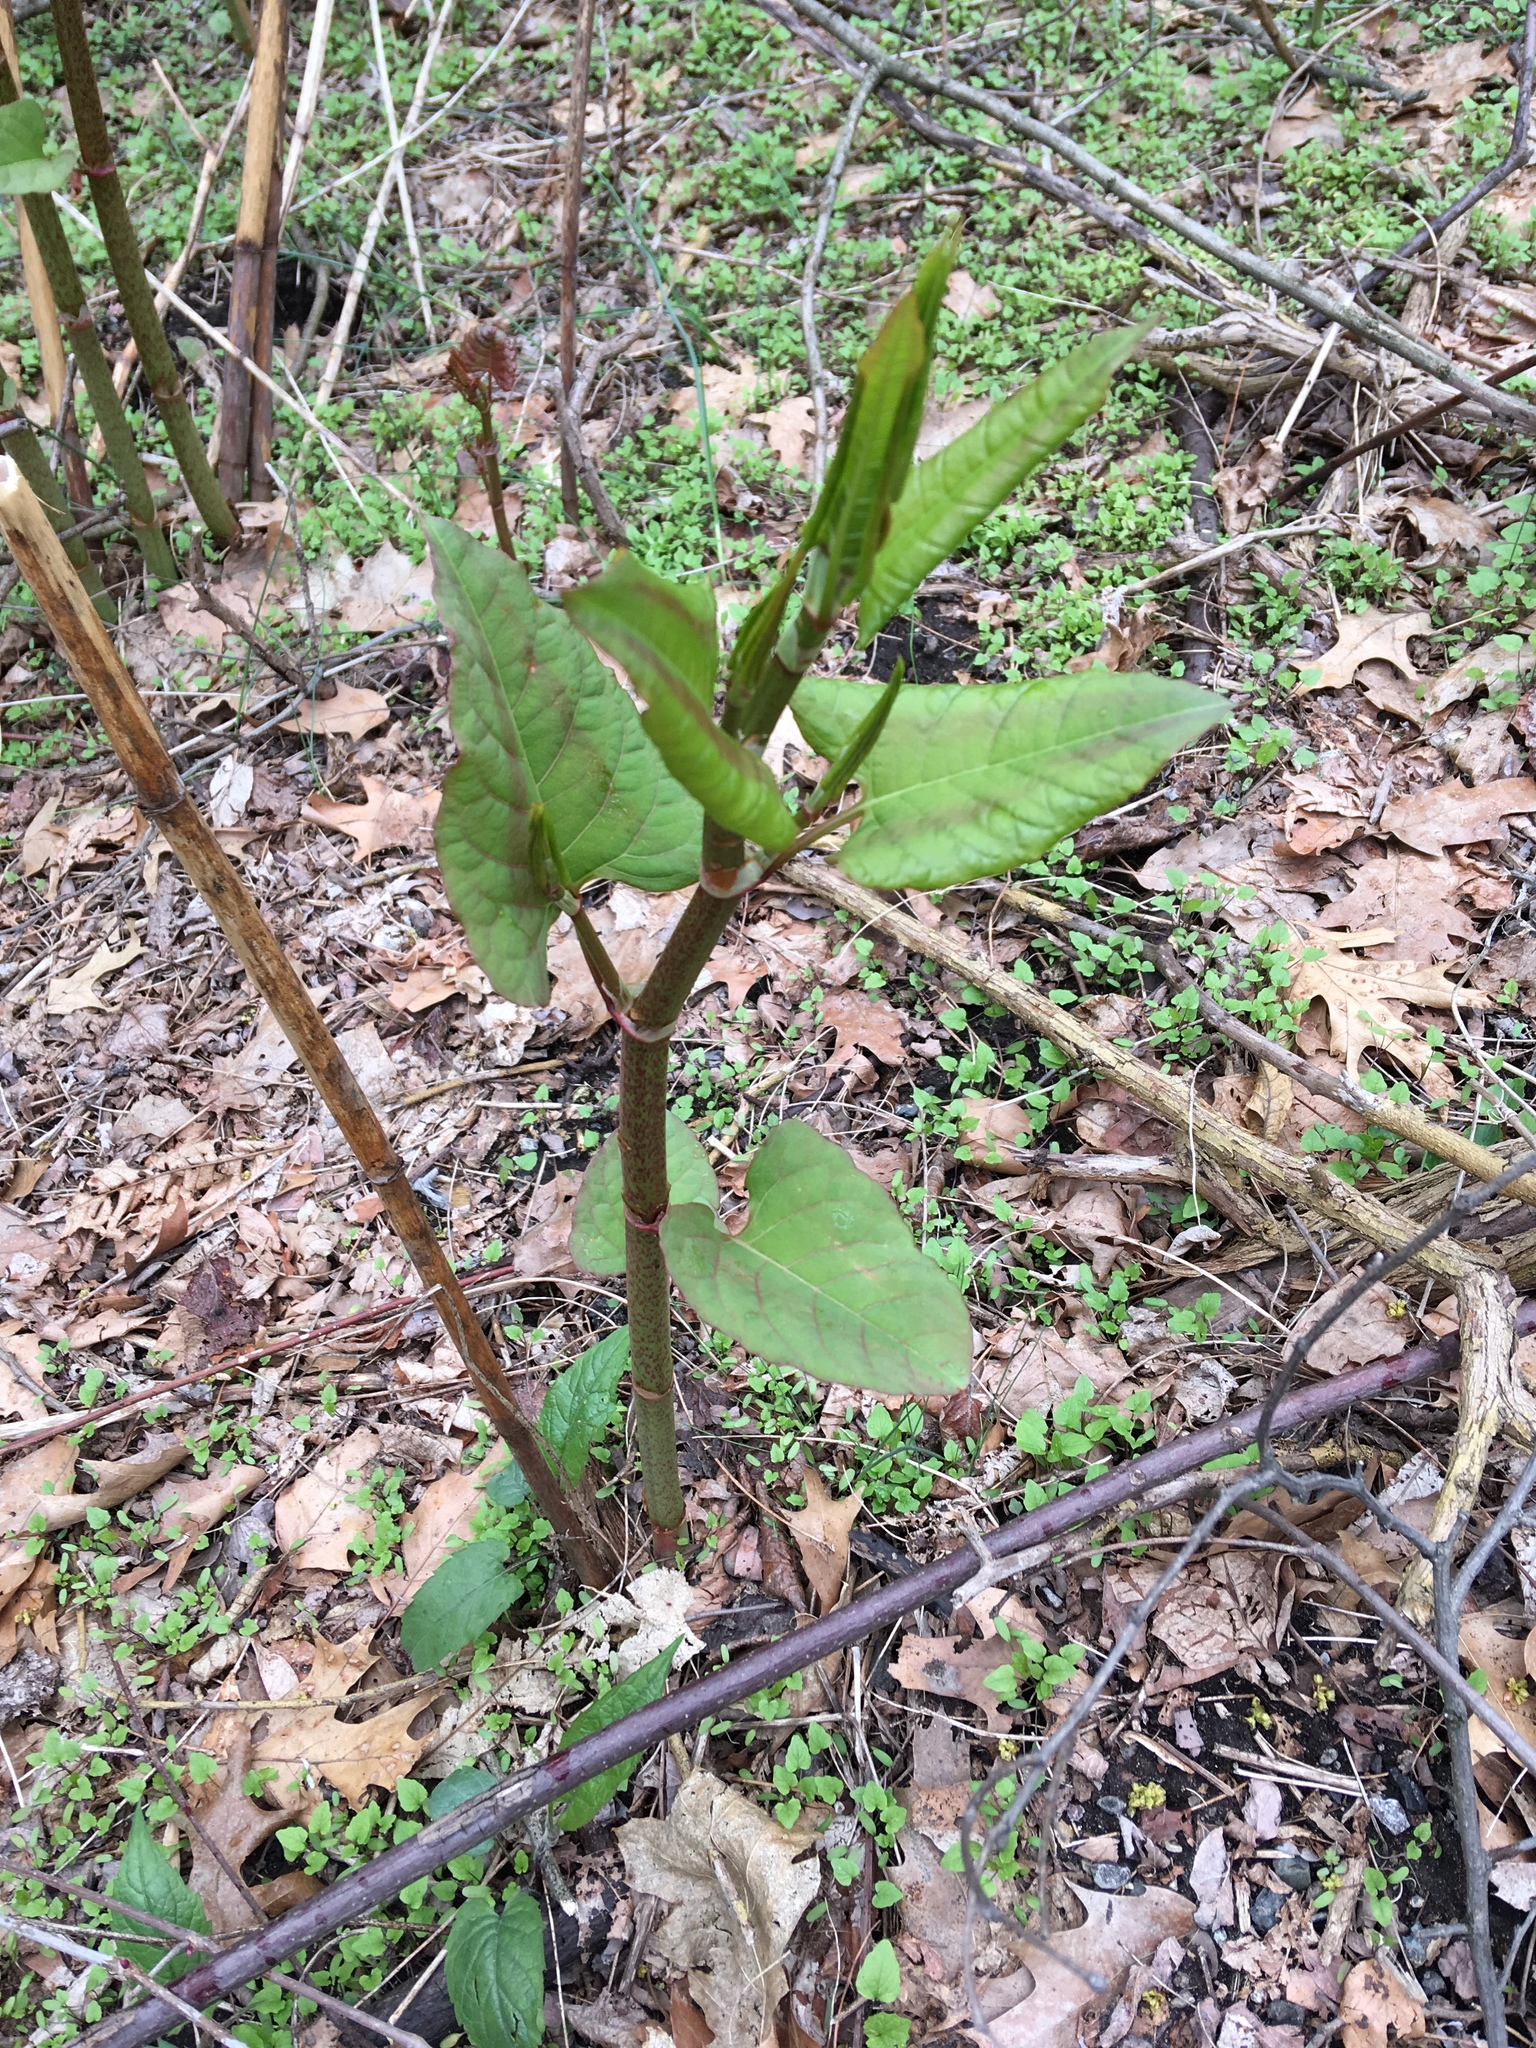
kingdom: Plantae
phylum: Tracheophyta
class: Magnoliopsida
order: Caryophyllales
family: Polygonaceae
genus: Reynoutria
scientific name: Reynoutria japonica
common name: Japanese knotweed
